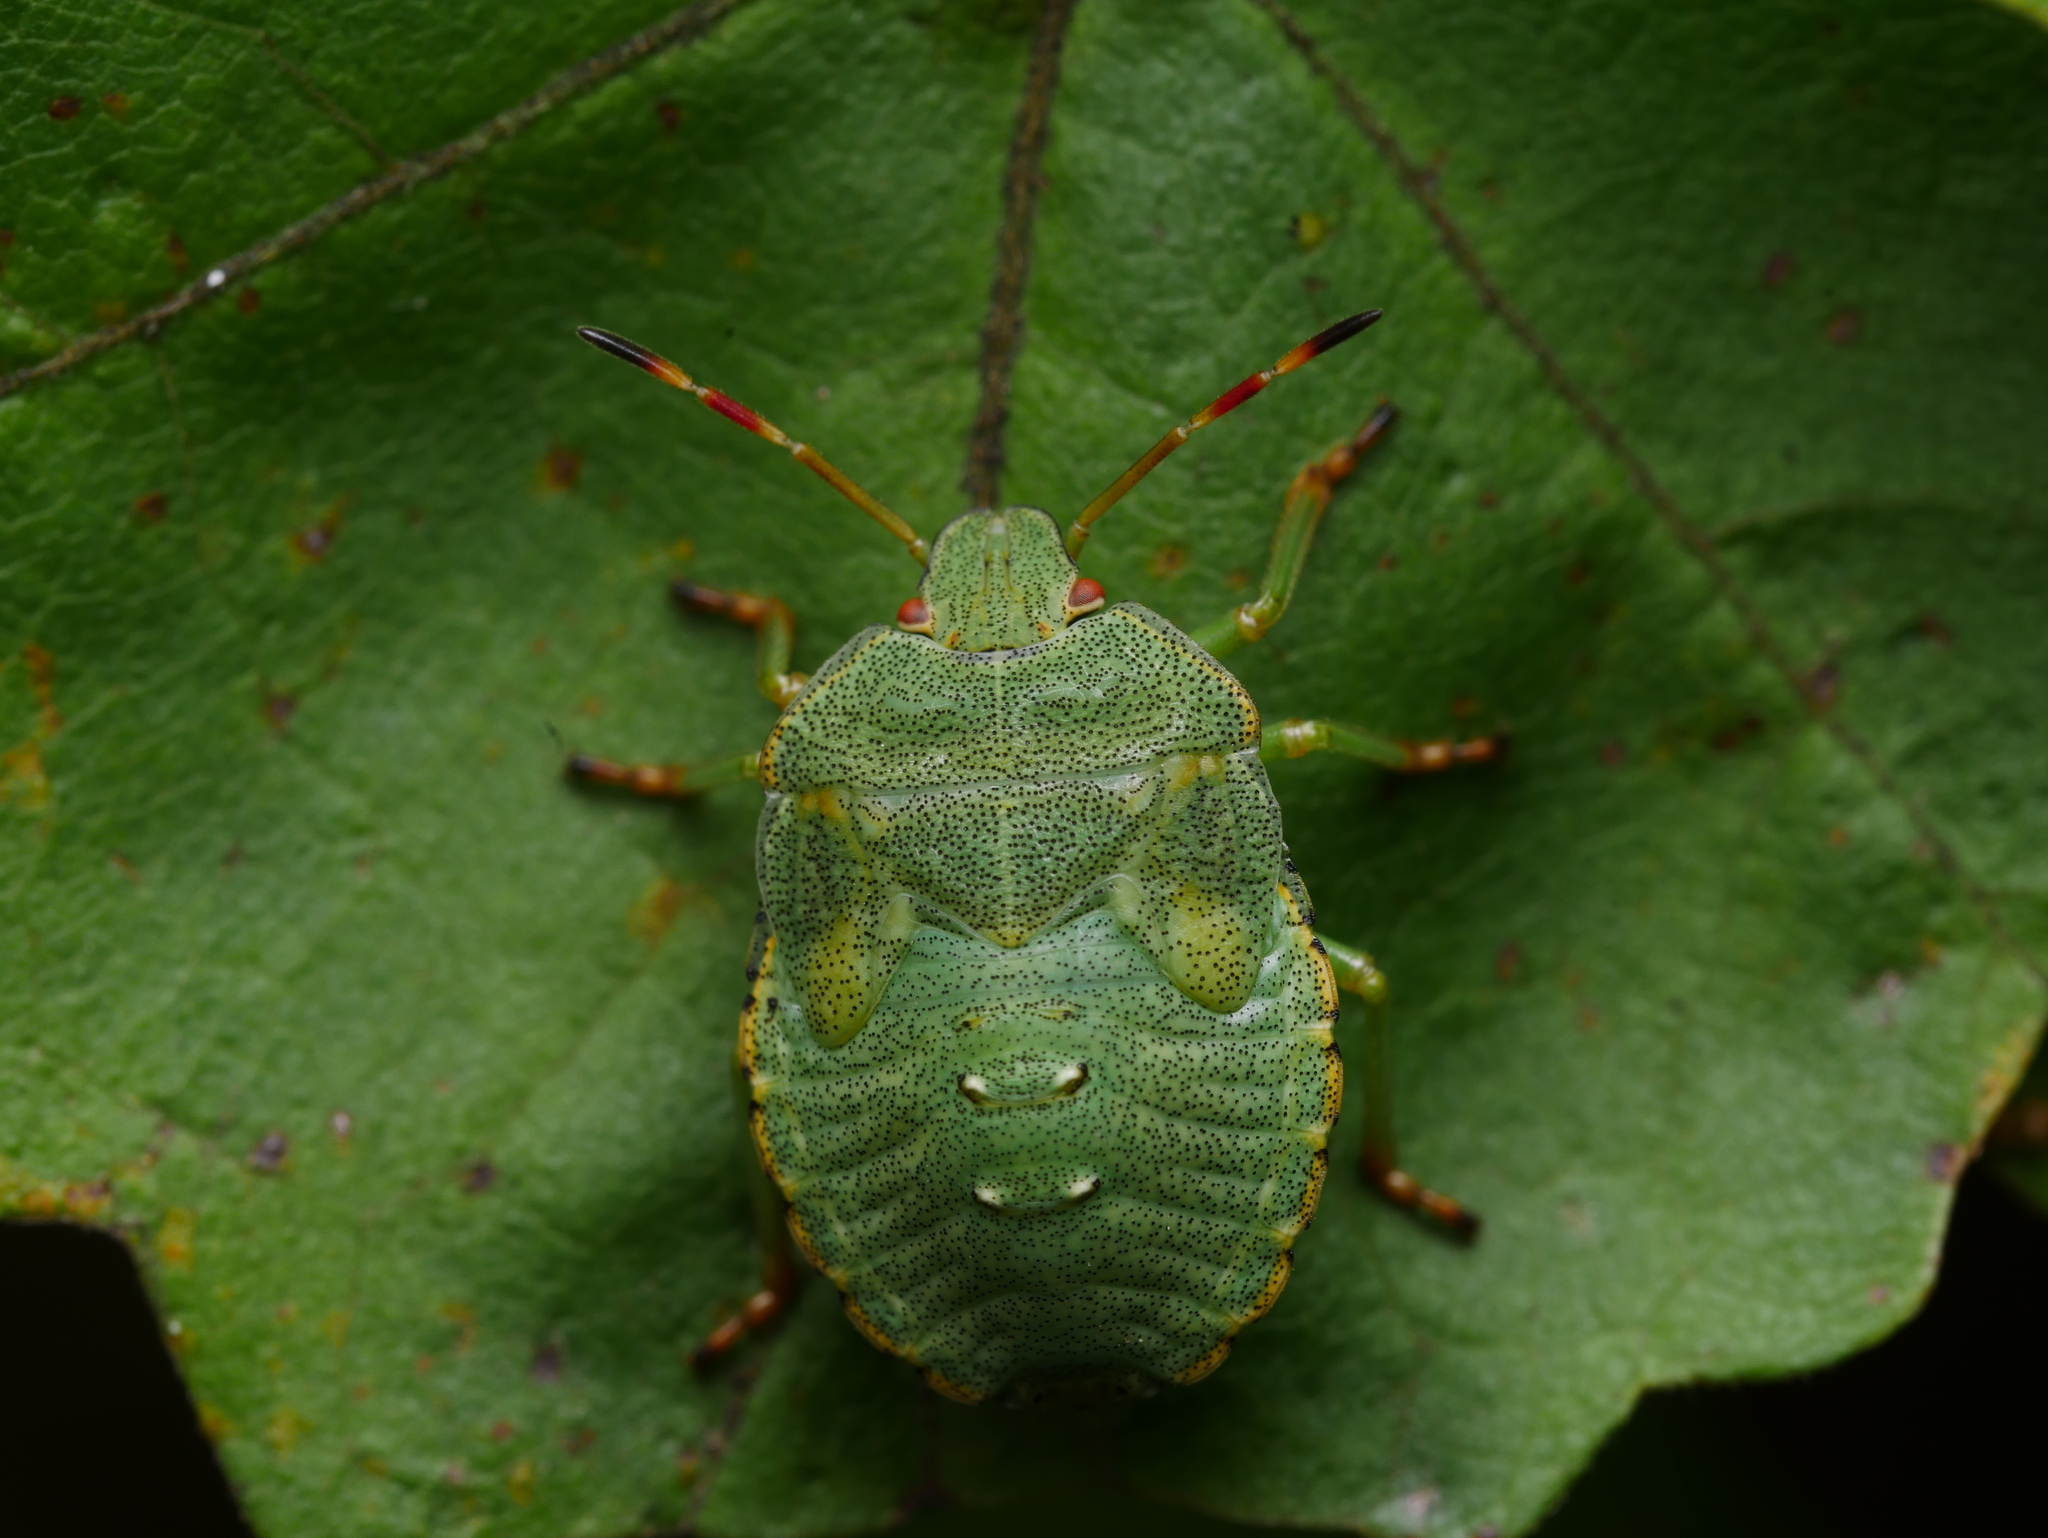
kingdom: Animalia
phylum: Arthropoda
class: Insecta
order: Hemiptera
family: Pentatomidae
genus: Palomena
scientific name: Palomena prasina
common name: Green shieldbug
